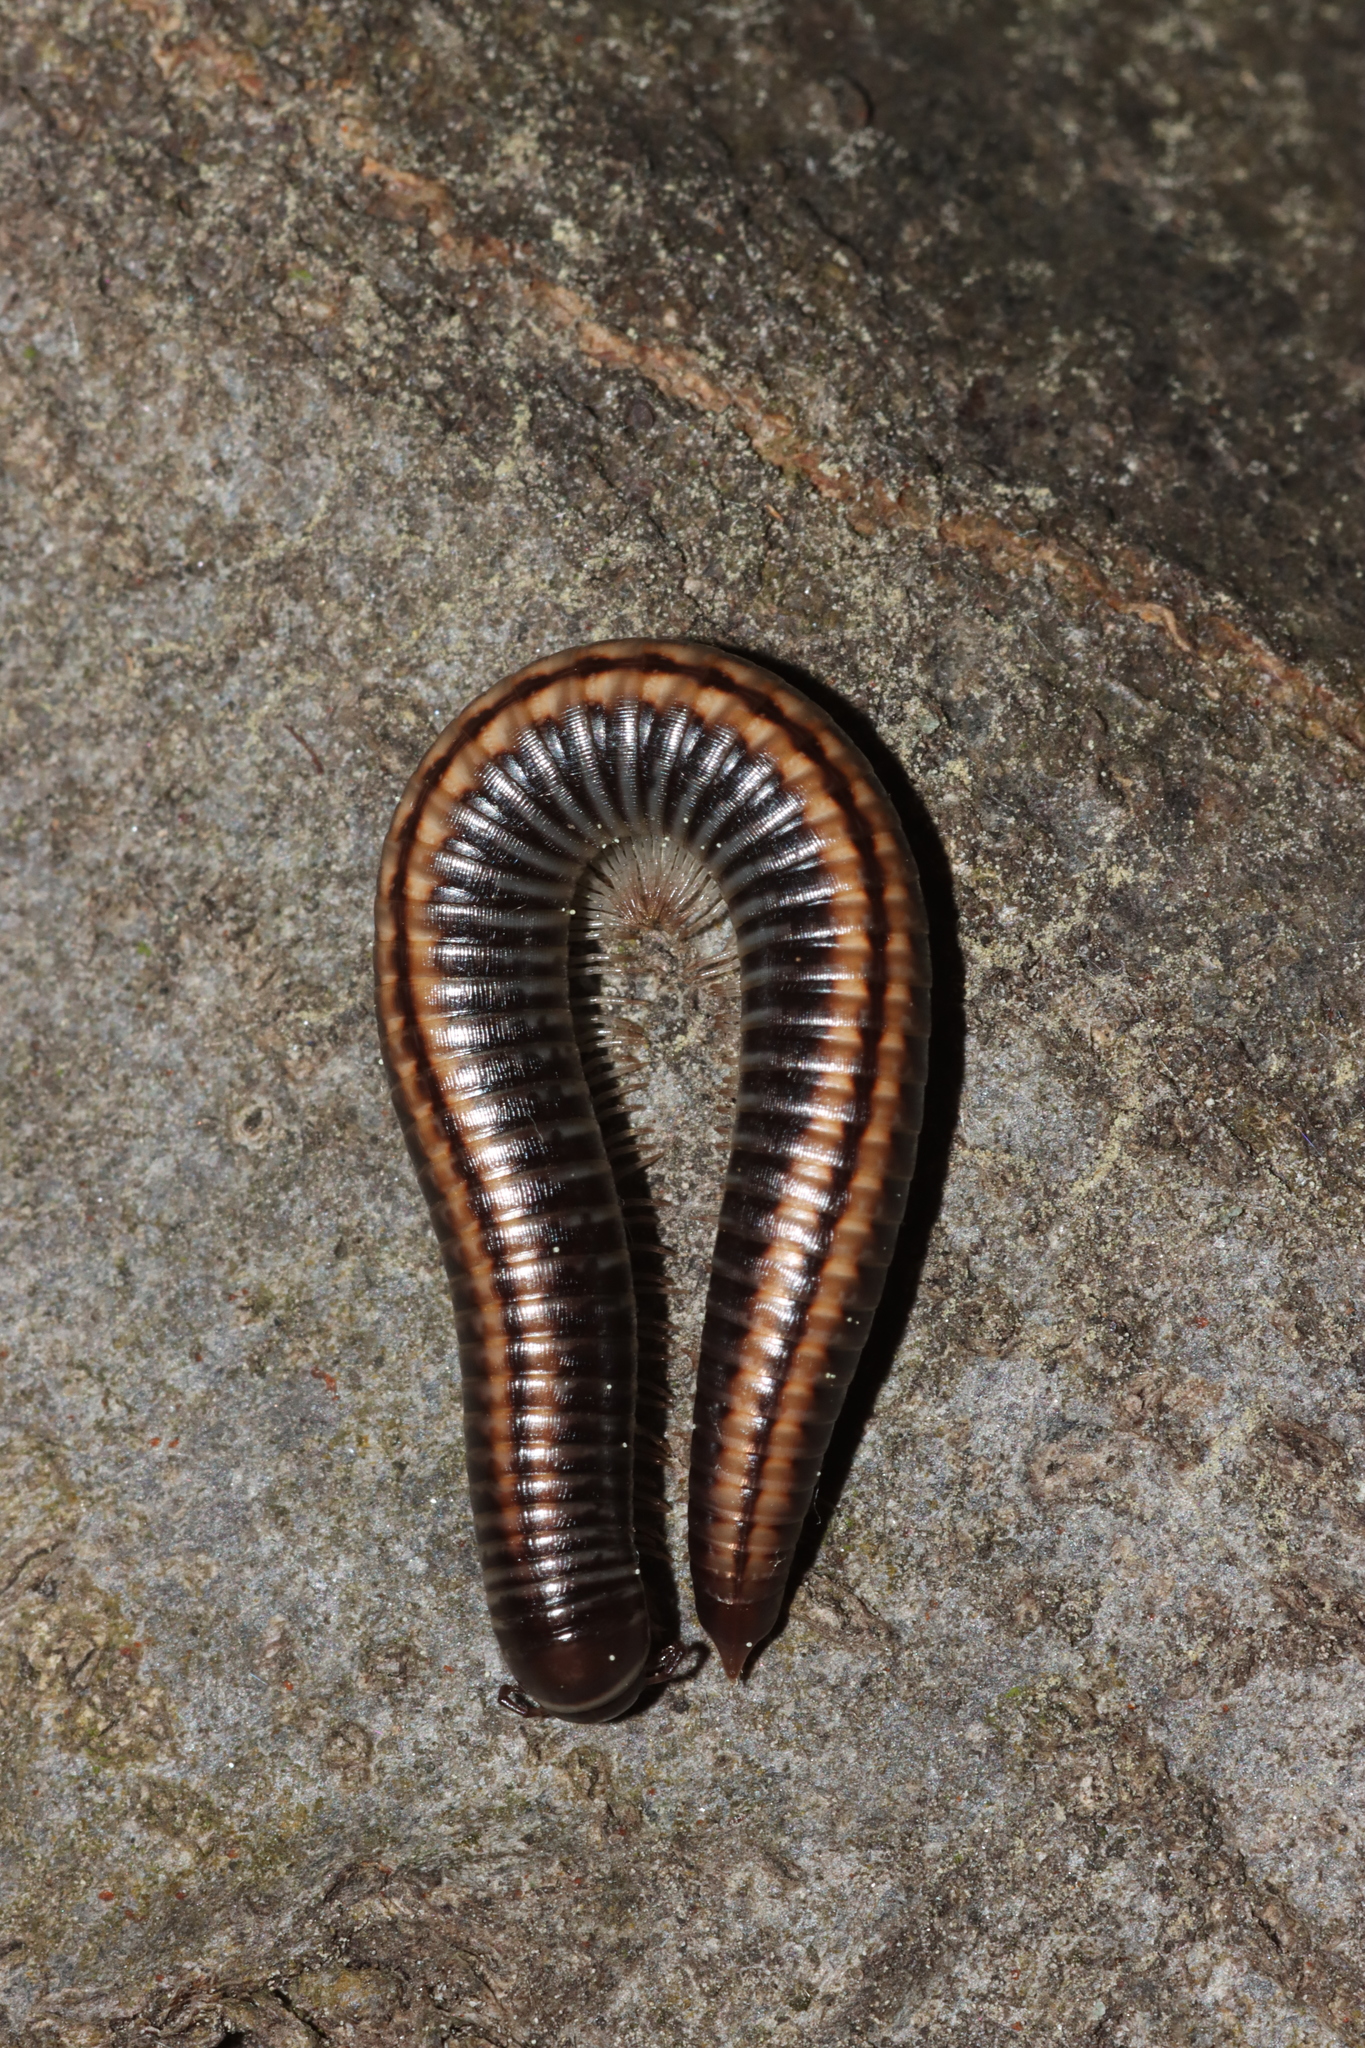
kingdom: Animalia
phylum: Arthropoda
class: Diplopoda
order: Julida
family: Julidae
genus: Ommatoiulus
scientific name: Ommatoiulus sabulosus
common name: Striped millipede
